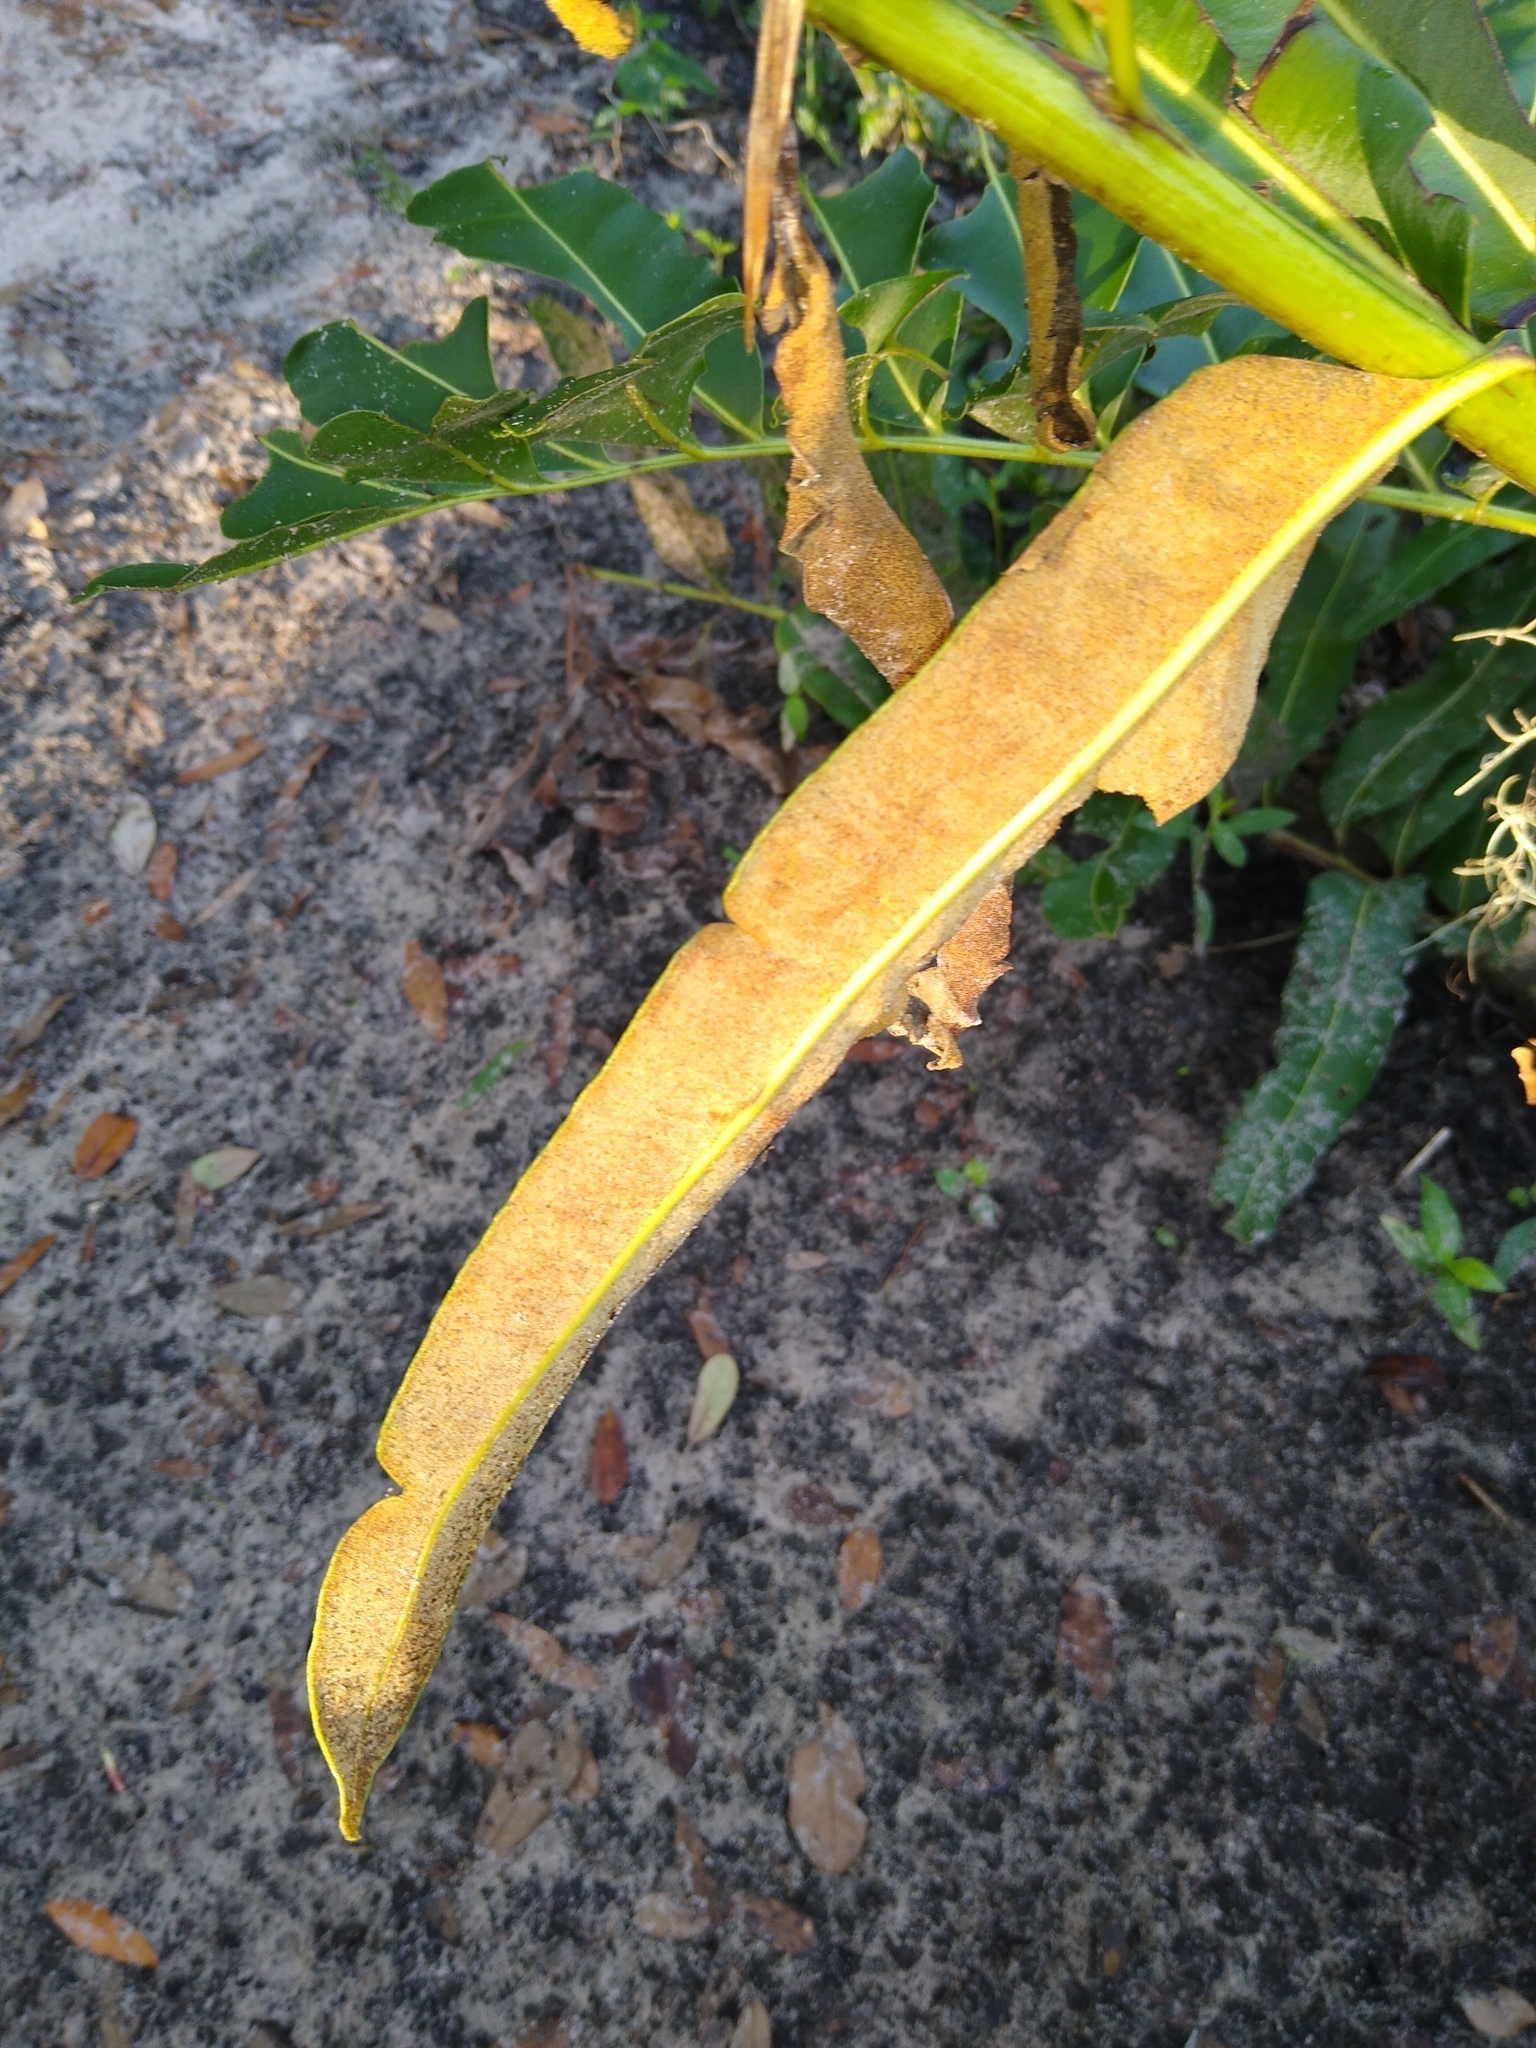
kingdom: Plantae
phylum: Tracheophyta
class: Polypodiopsida
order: Polypodiales
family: Pteridaceae
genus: Acrostichum
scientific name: Acrostichum danaeifolium
